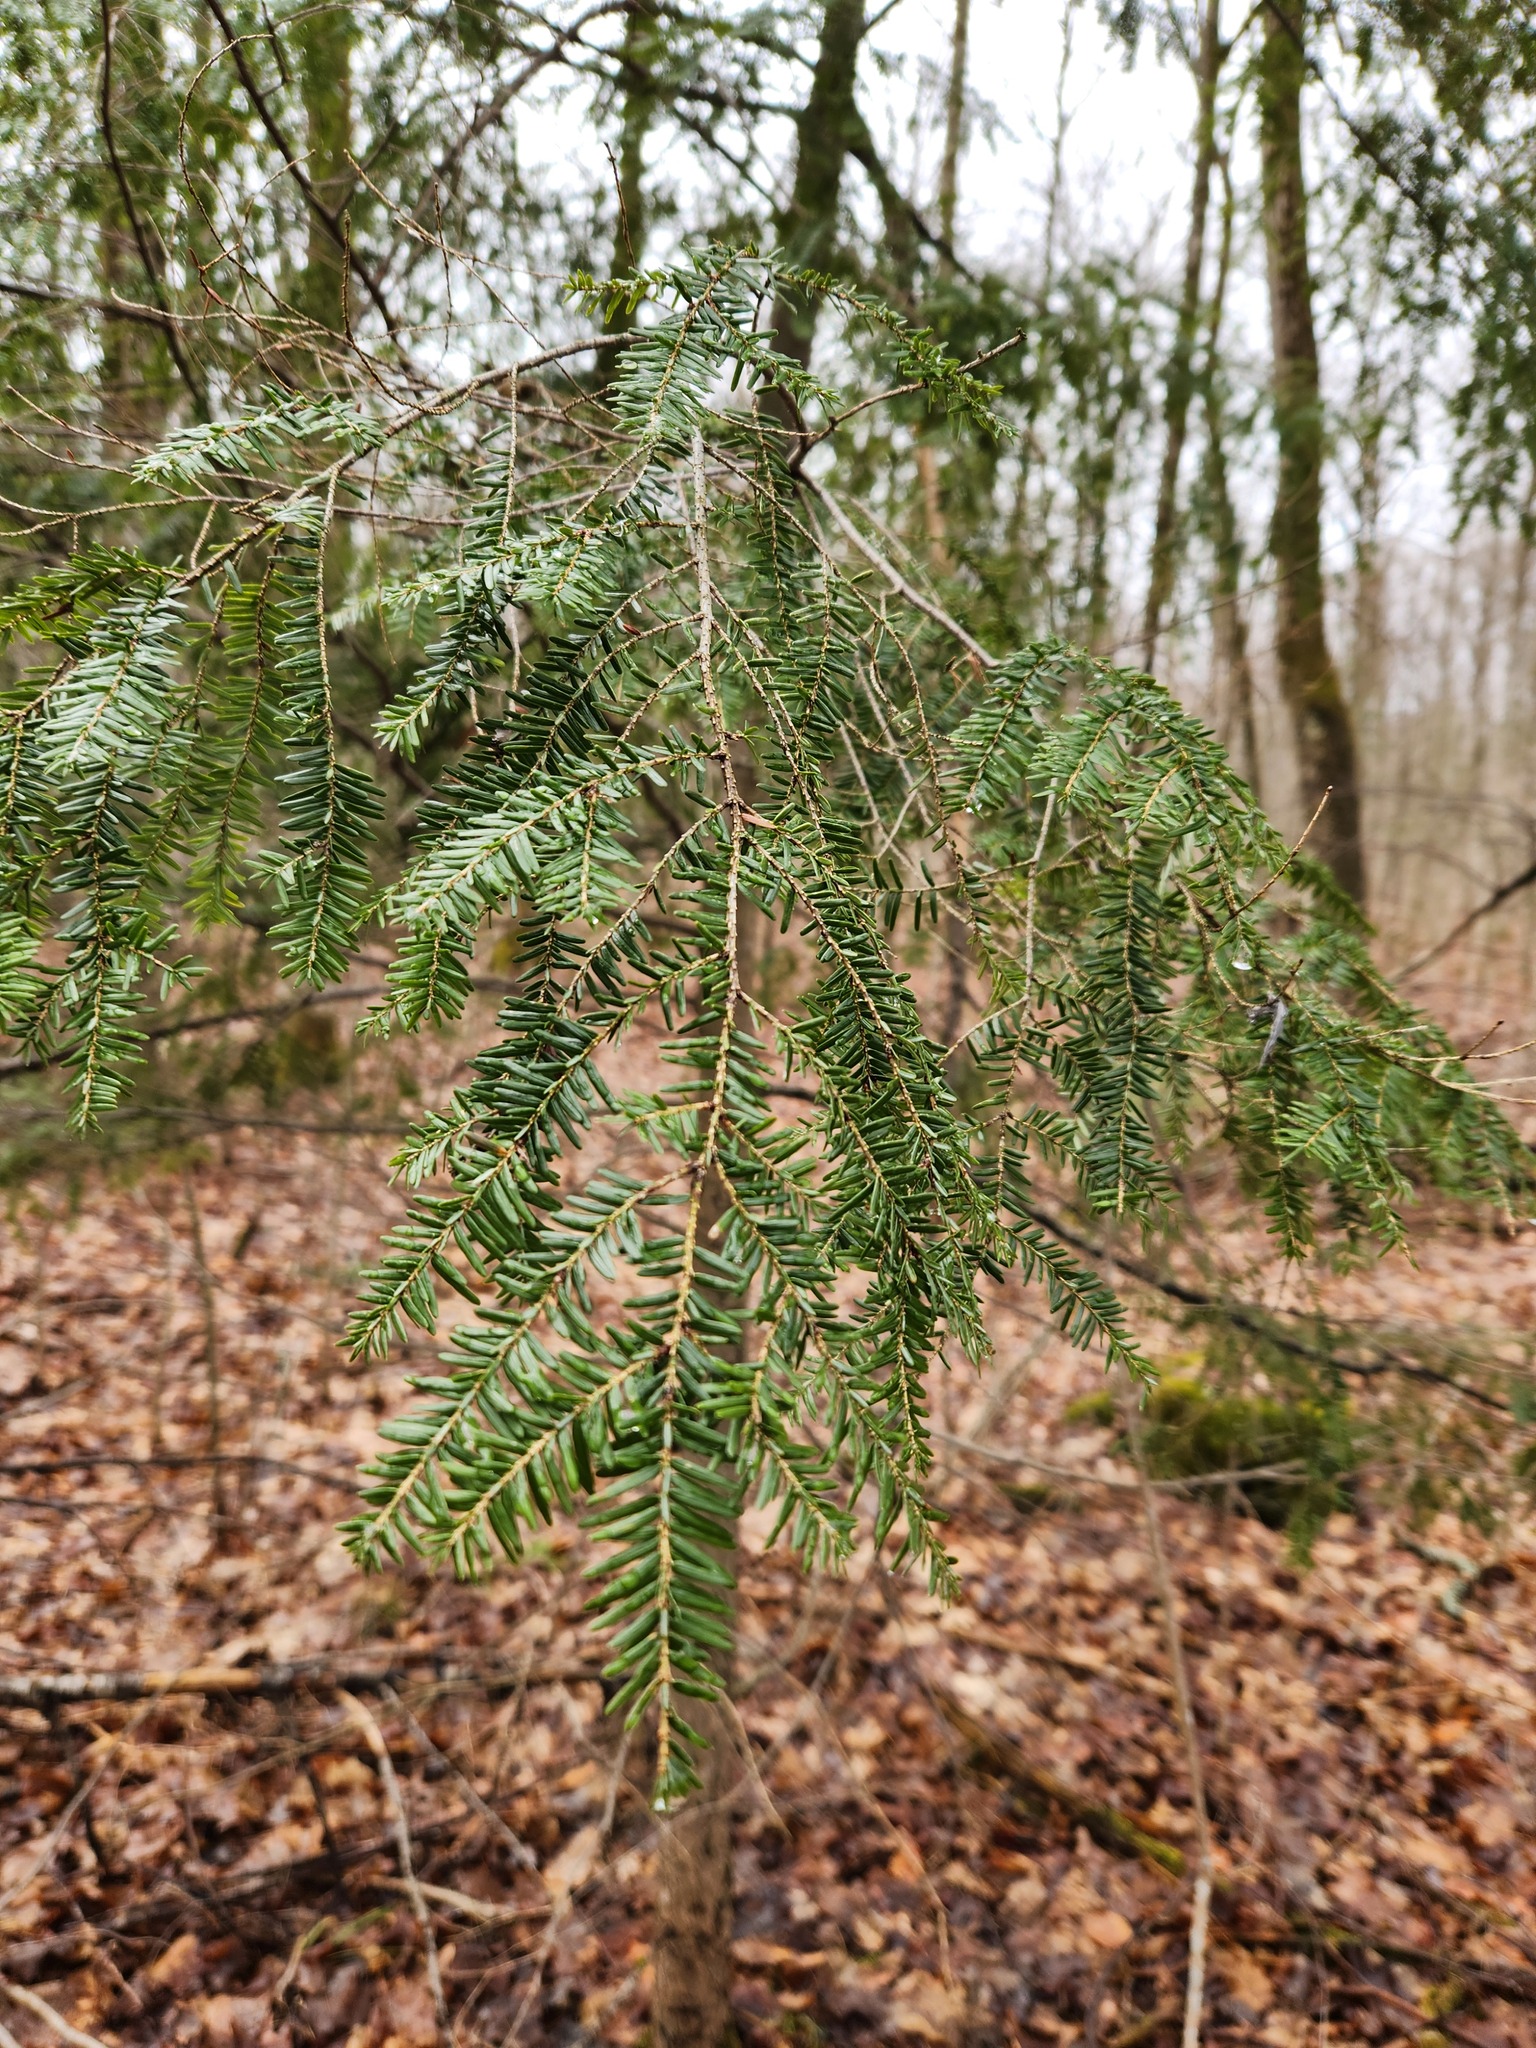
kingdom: Plantae
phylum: Tracheophyta
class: Pinopsida
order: Pinales
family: Pinaceae
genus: Tsuga
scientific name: Tsuga canadensis
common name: Eastern hemlock
